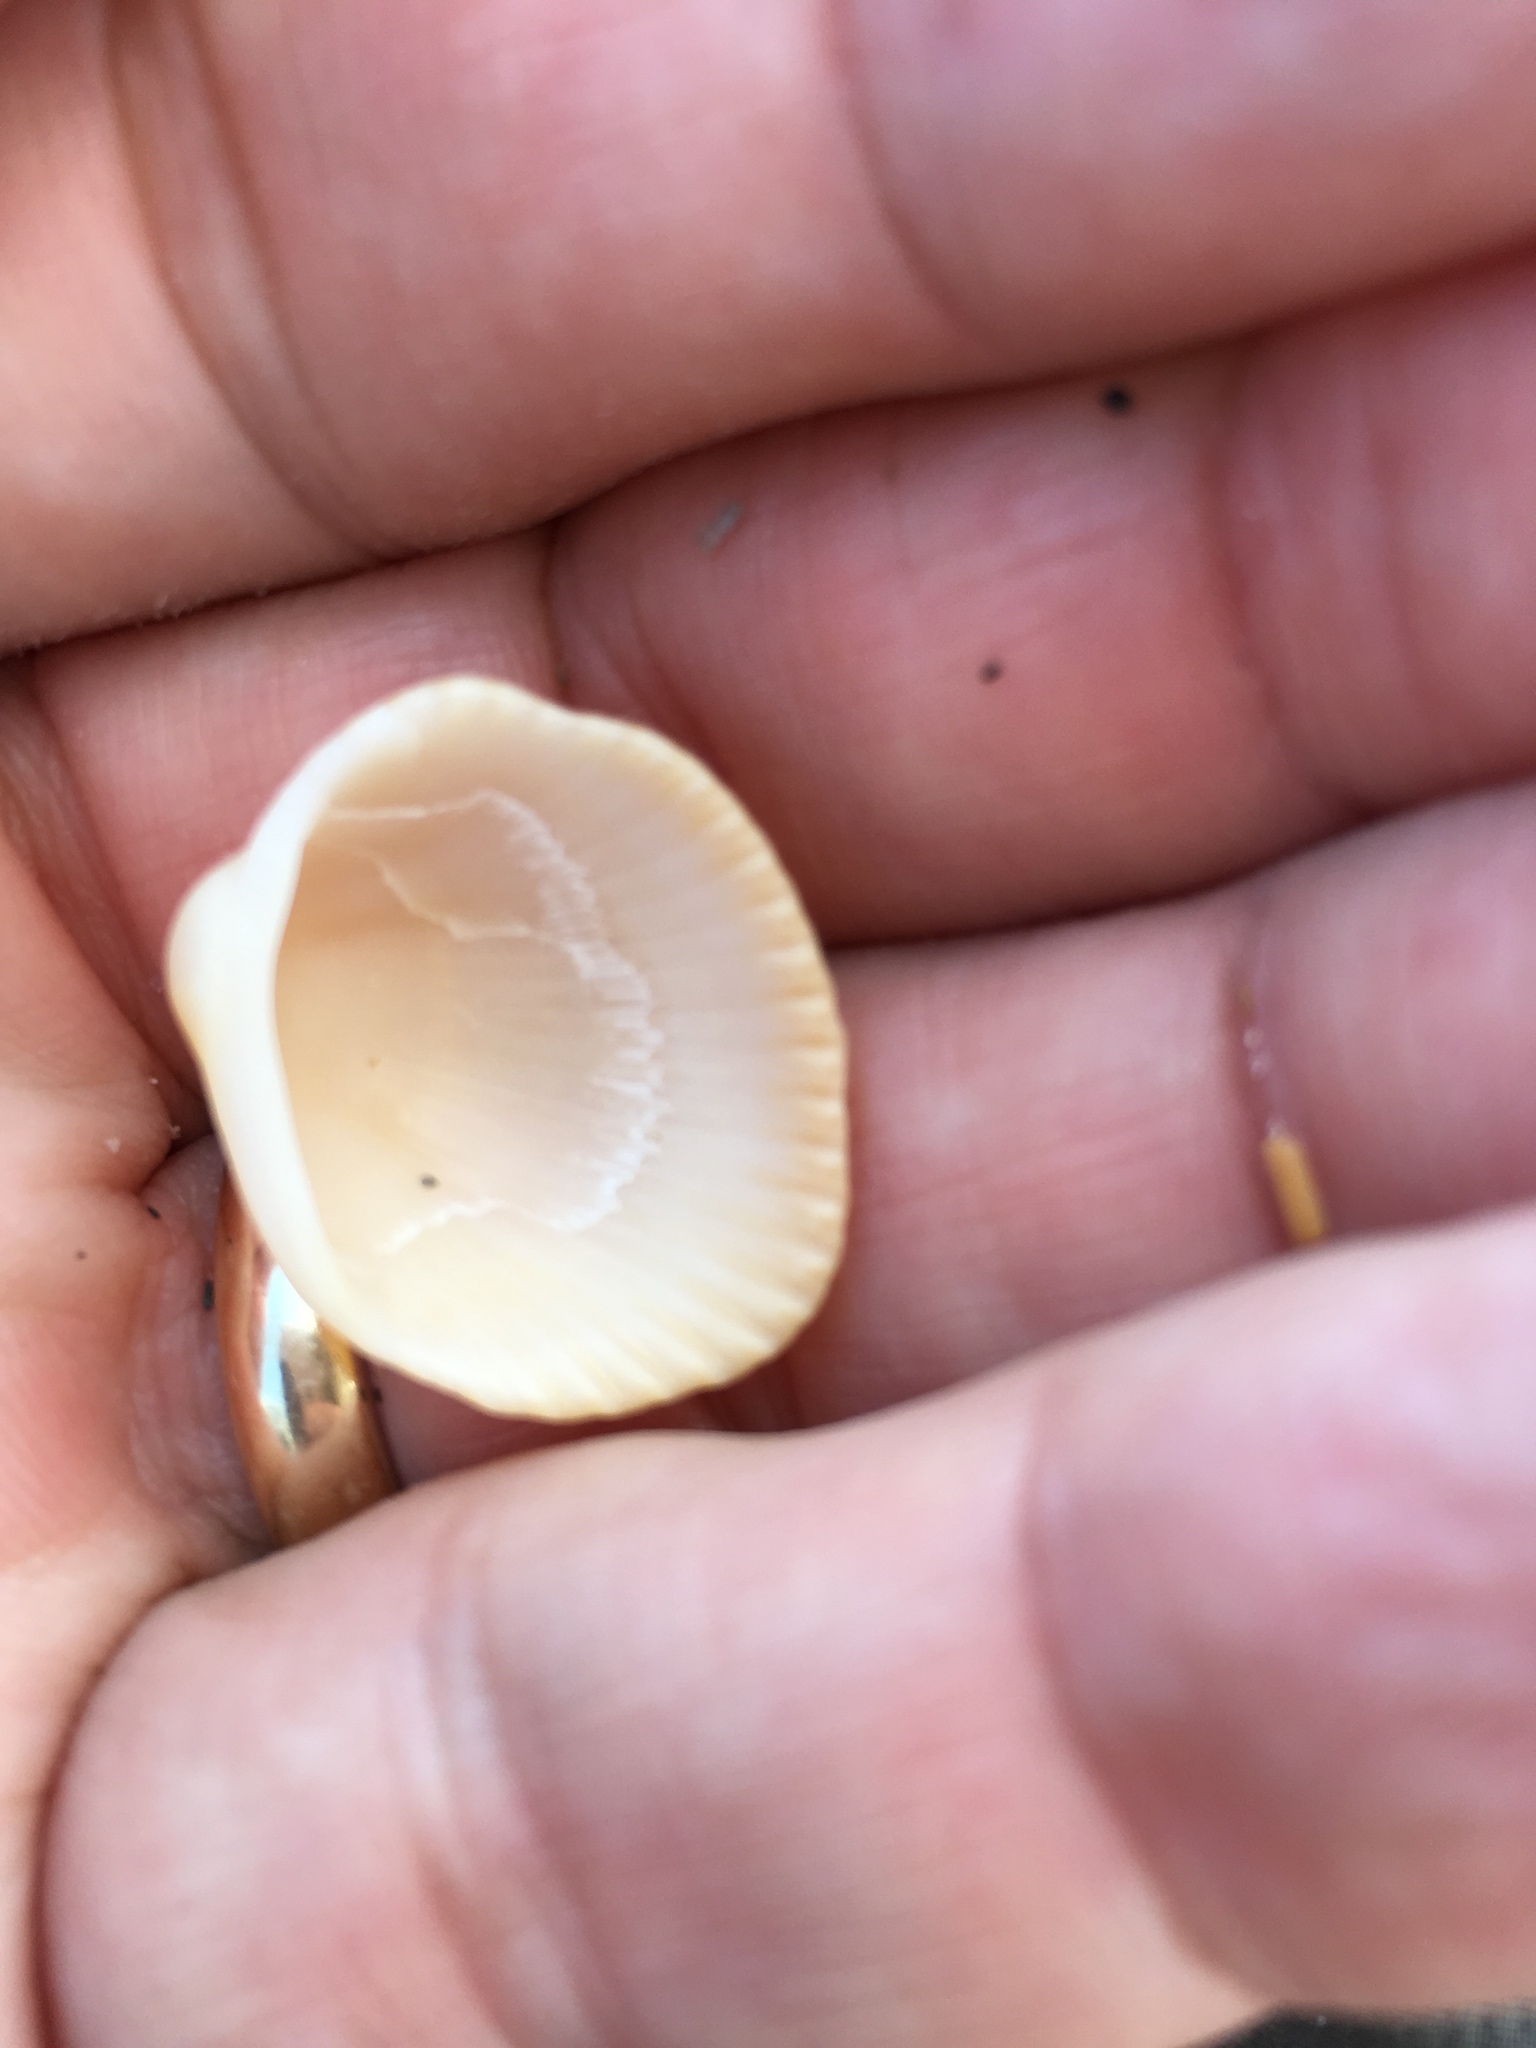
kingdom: Animalia
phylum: Mollusca
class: Bivalvia
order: Arcida
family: Arcidae
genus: Lunarca
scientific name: Lunarca ovalis
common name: Blood ark
